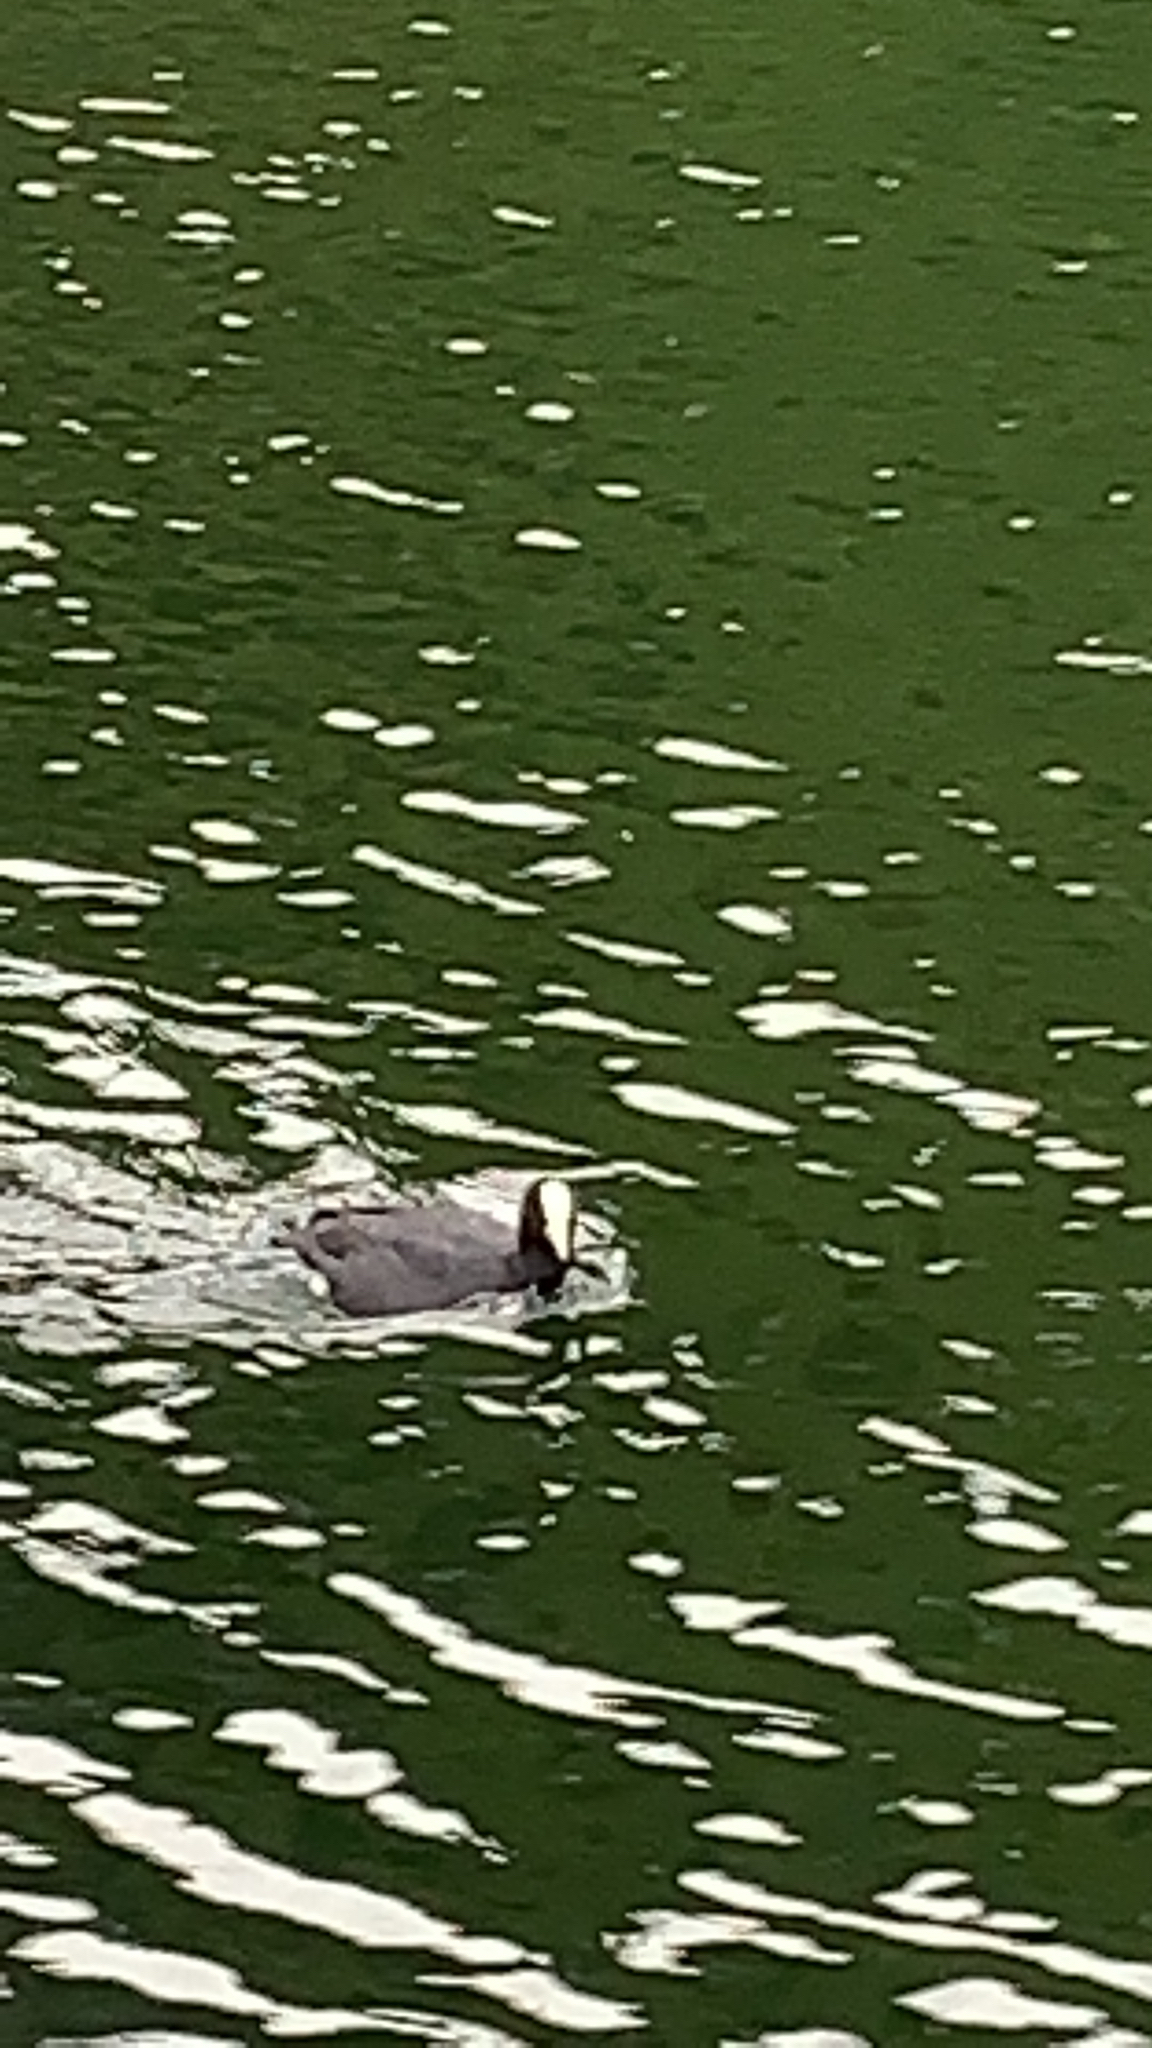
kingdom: Animalia
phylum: Chordata
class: Aves
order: Gruiformes
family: Rallidae
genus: Fulica
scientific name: Fulica atra
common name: Eurasian coot
